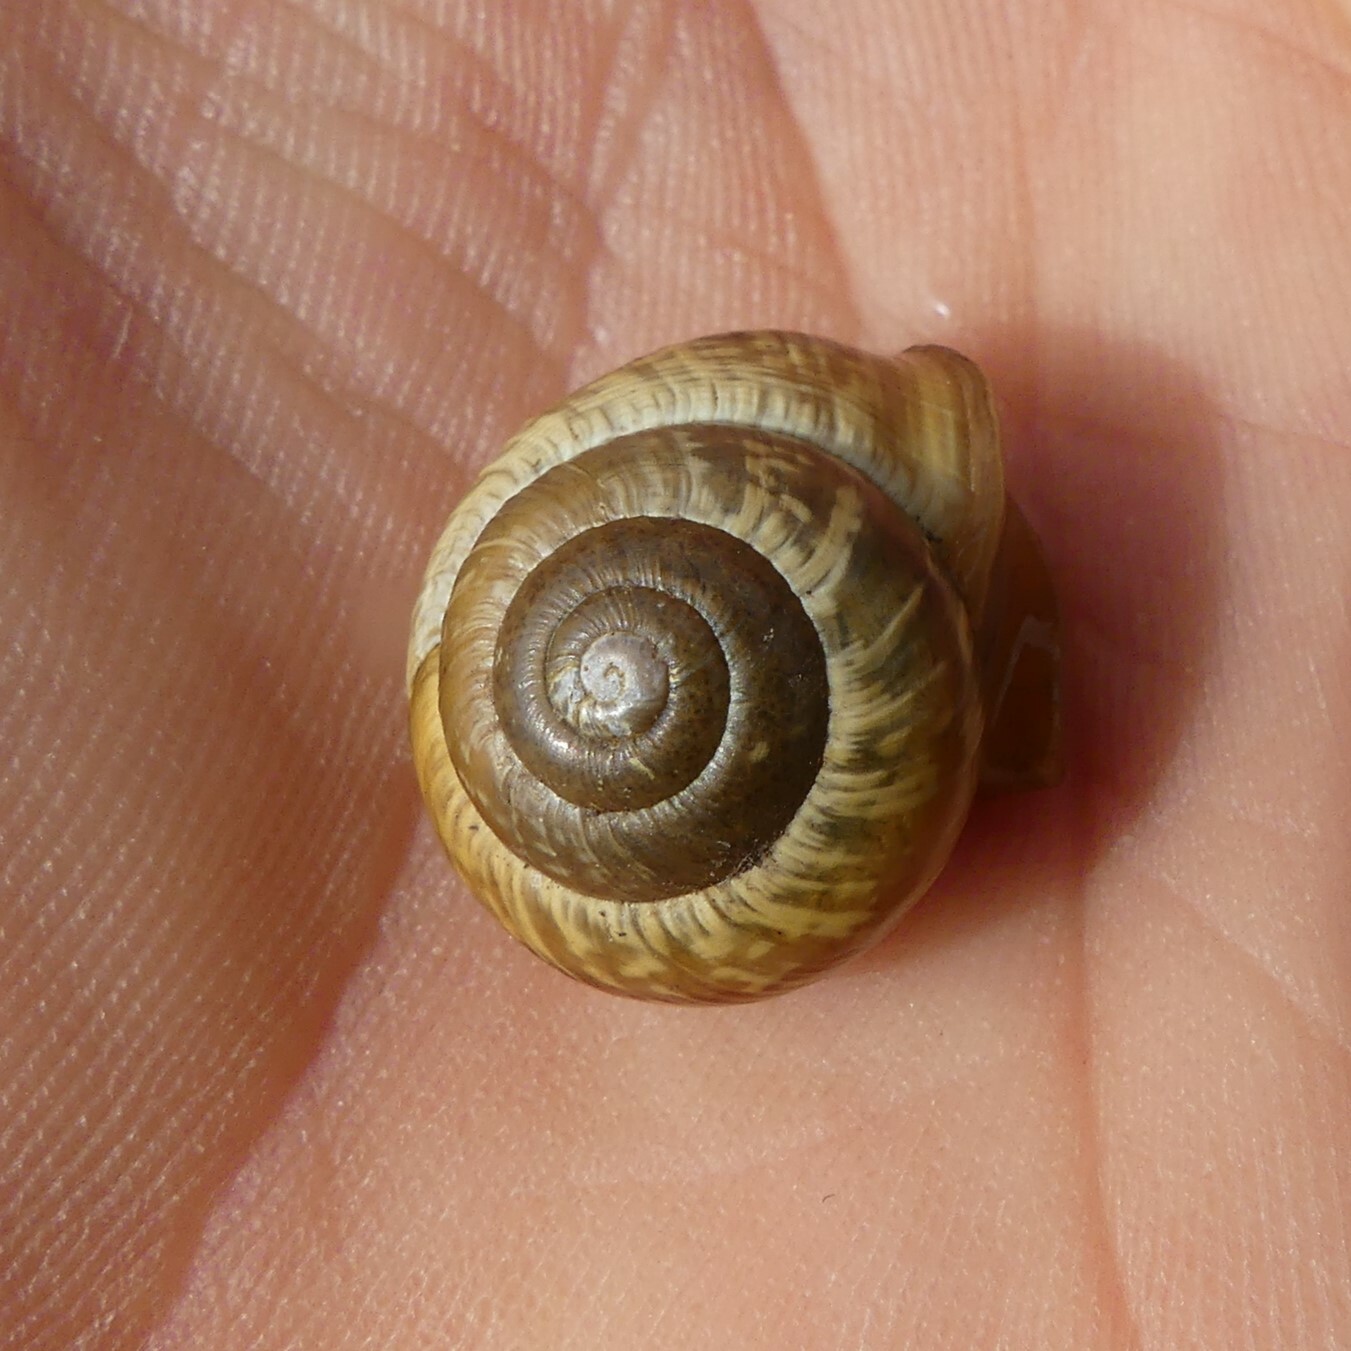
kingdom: Animalia
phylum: Mollusca
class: Gastropoda
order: Stylommatophora
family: Helicidae
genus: Arianta
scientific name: Arianta arbustorum
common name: Copse snail
